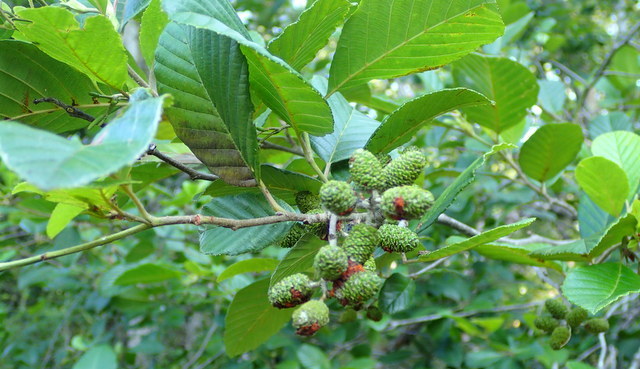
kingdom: Plantae
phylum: Tracheophyta
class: Magnoliopsida
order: Fagales
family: Betulaceae
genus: Alnus
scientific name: Alnus serrulata
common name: Hazel alder
